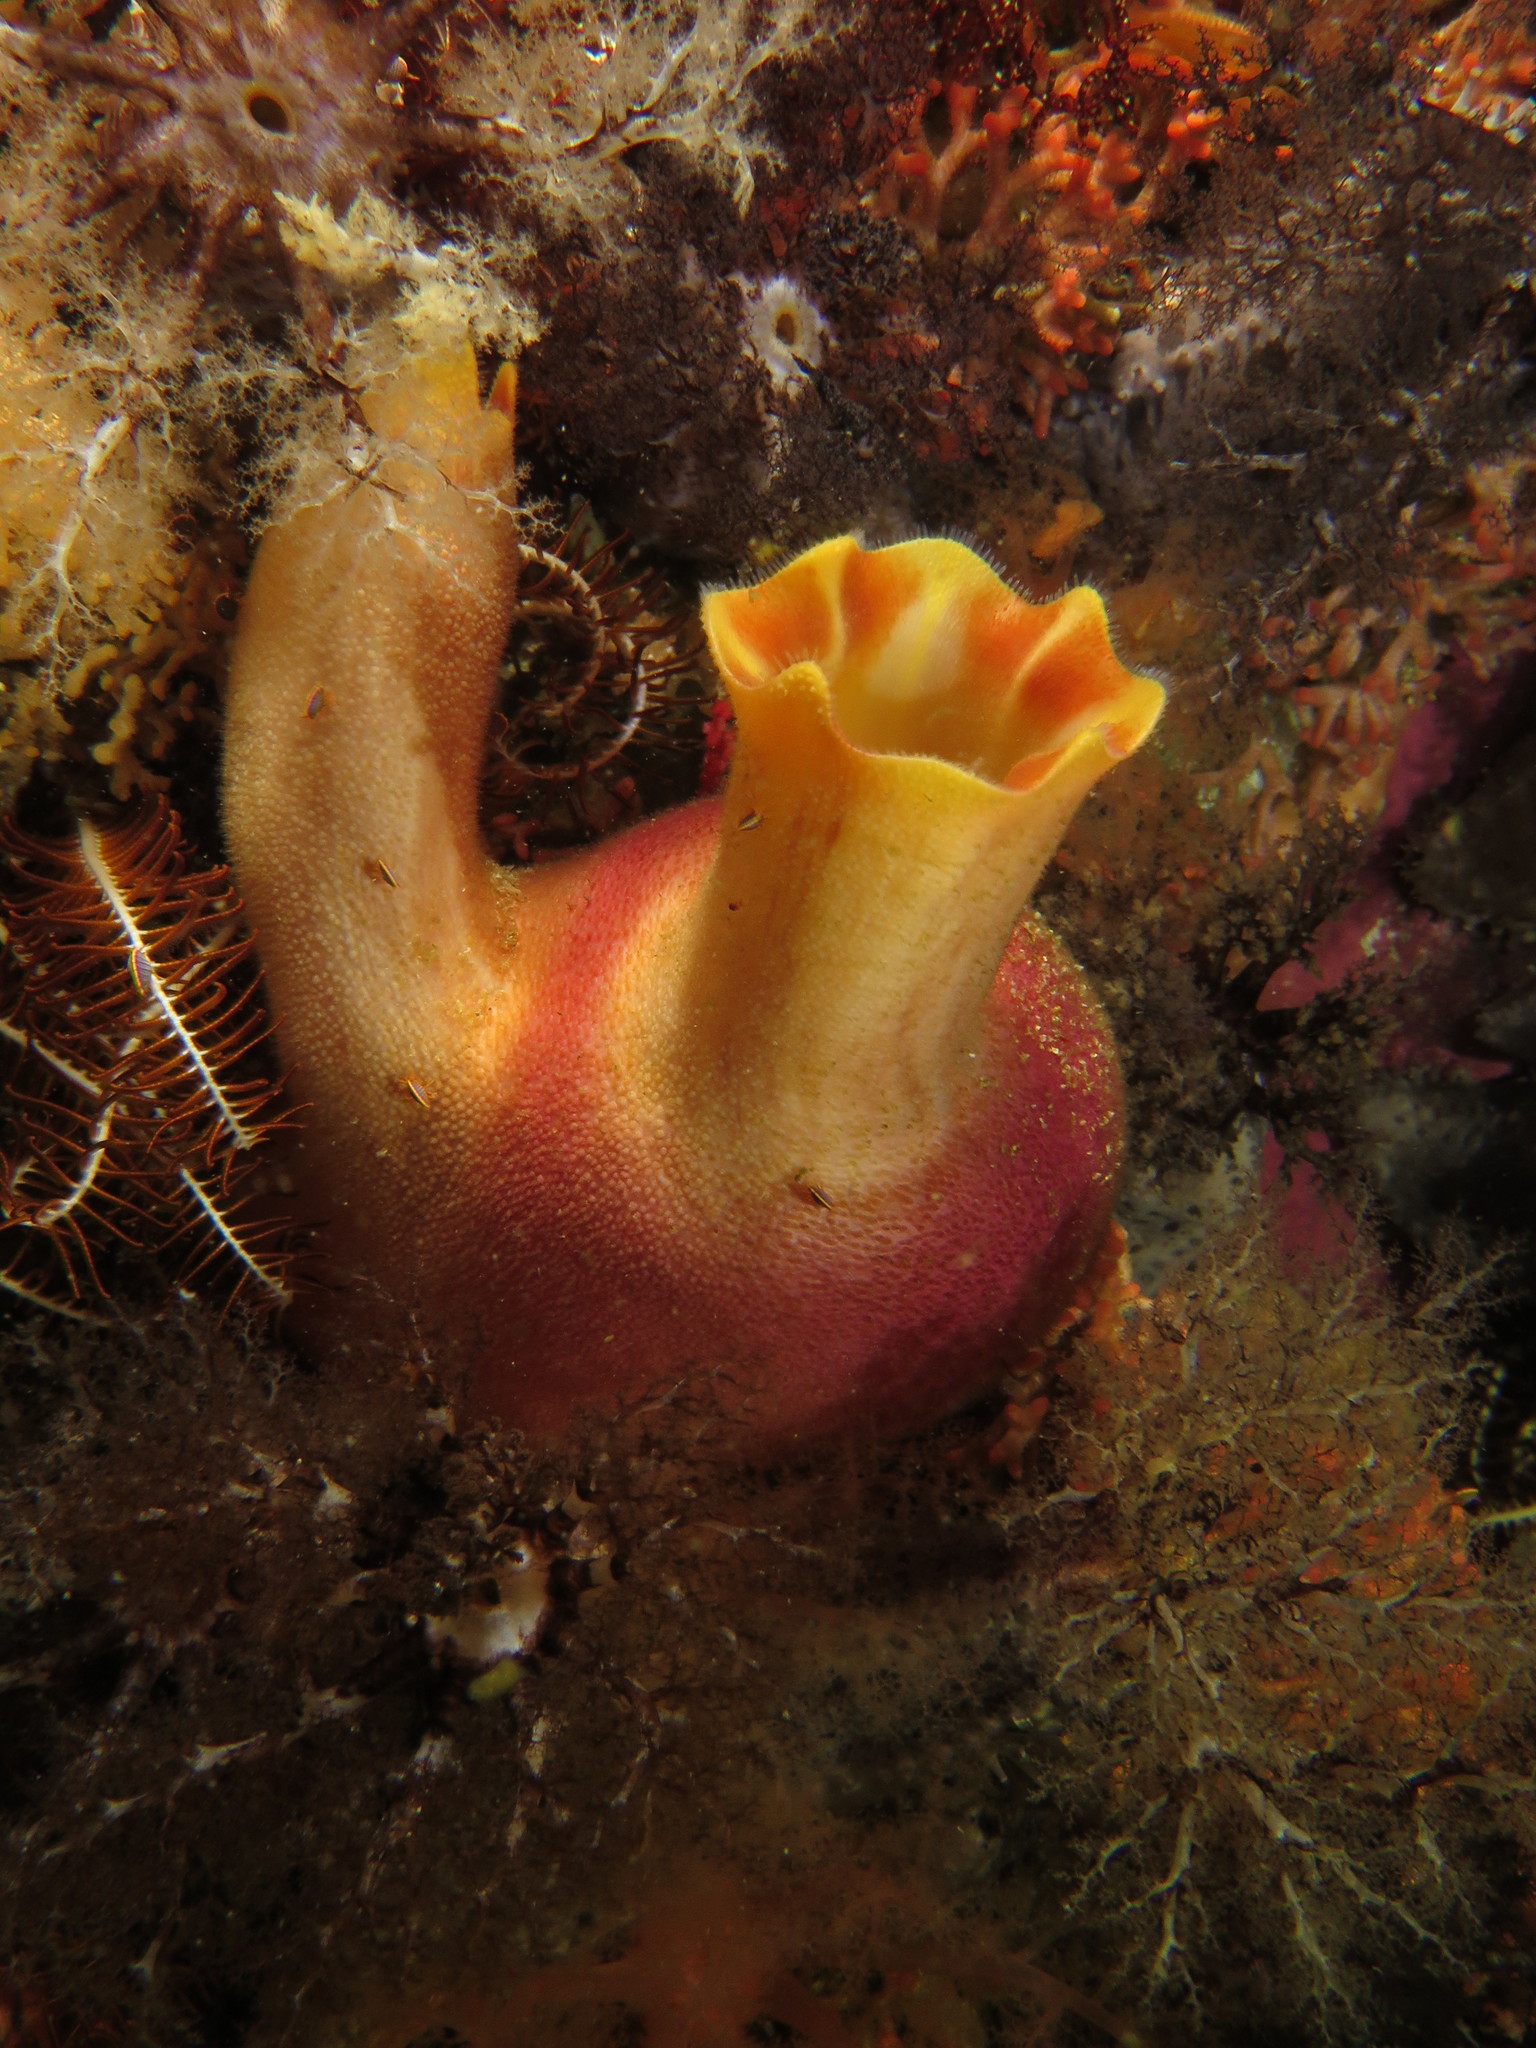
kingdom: Animalia
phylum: Chordata
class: Ascidiacea
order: Phlebobranchia
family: Ascidiidae
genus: Ascidia
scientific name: Ascidia incrassata
